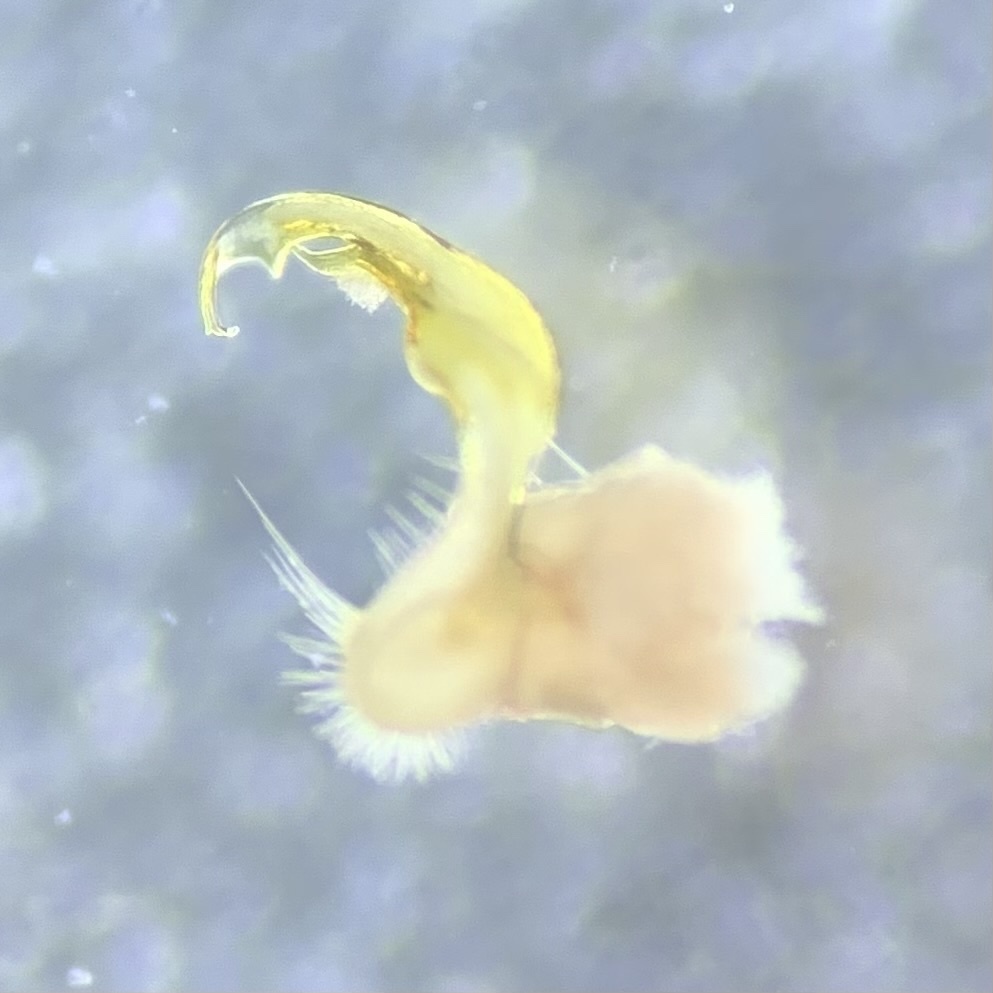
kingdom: Animalia
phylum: Arthropoda
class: Diplopoda
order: Polydesmida
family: Polydesmidae
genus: Polydesmus
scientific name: Polydesmus angustus
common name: Flat millipede
